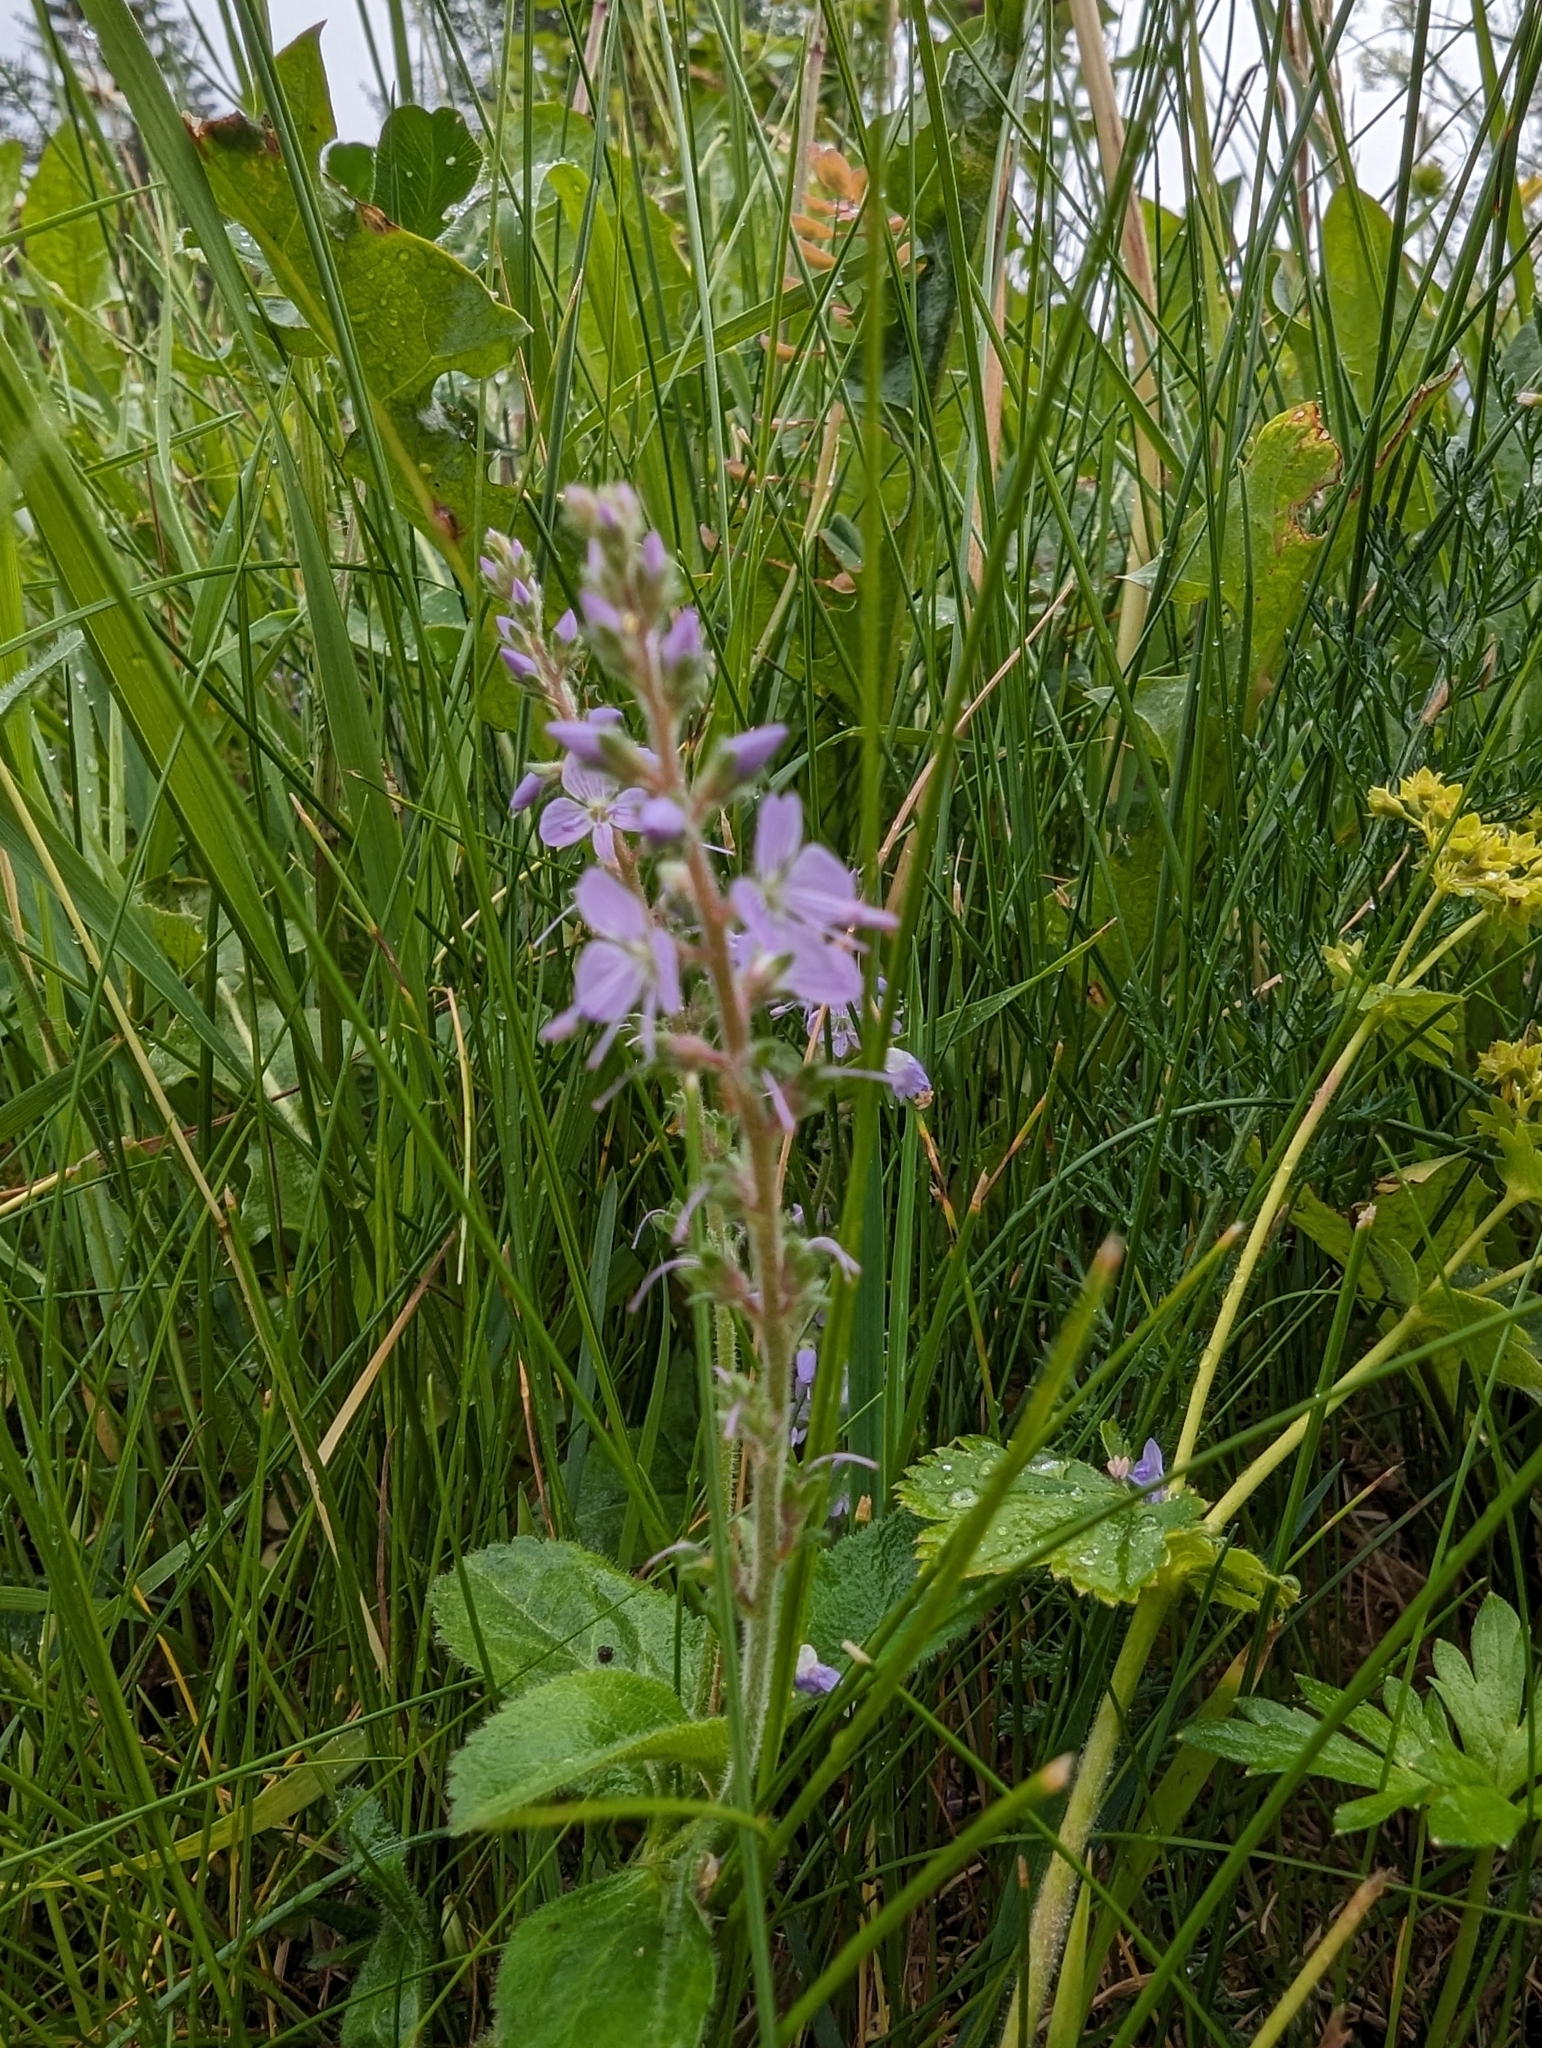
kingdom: Plantae
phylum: Tracheophyta
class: Magnoliopsida
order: Lamiales
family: Plantaginaceae
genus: Veronica
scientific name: Veronica officinalis
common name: Common speedwell
